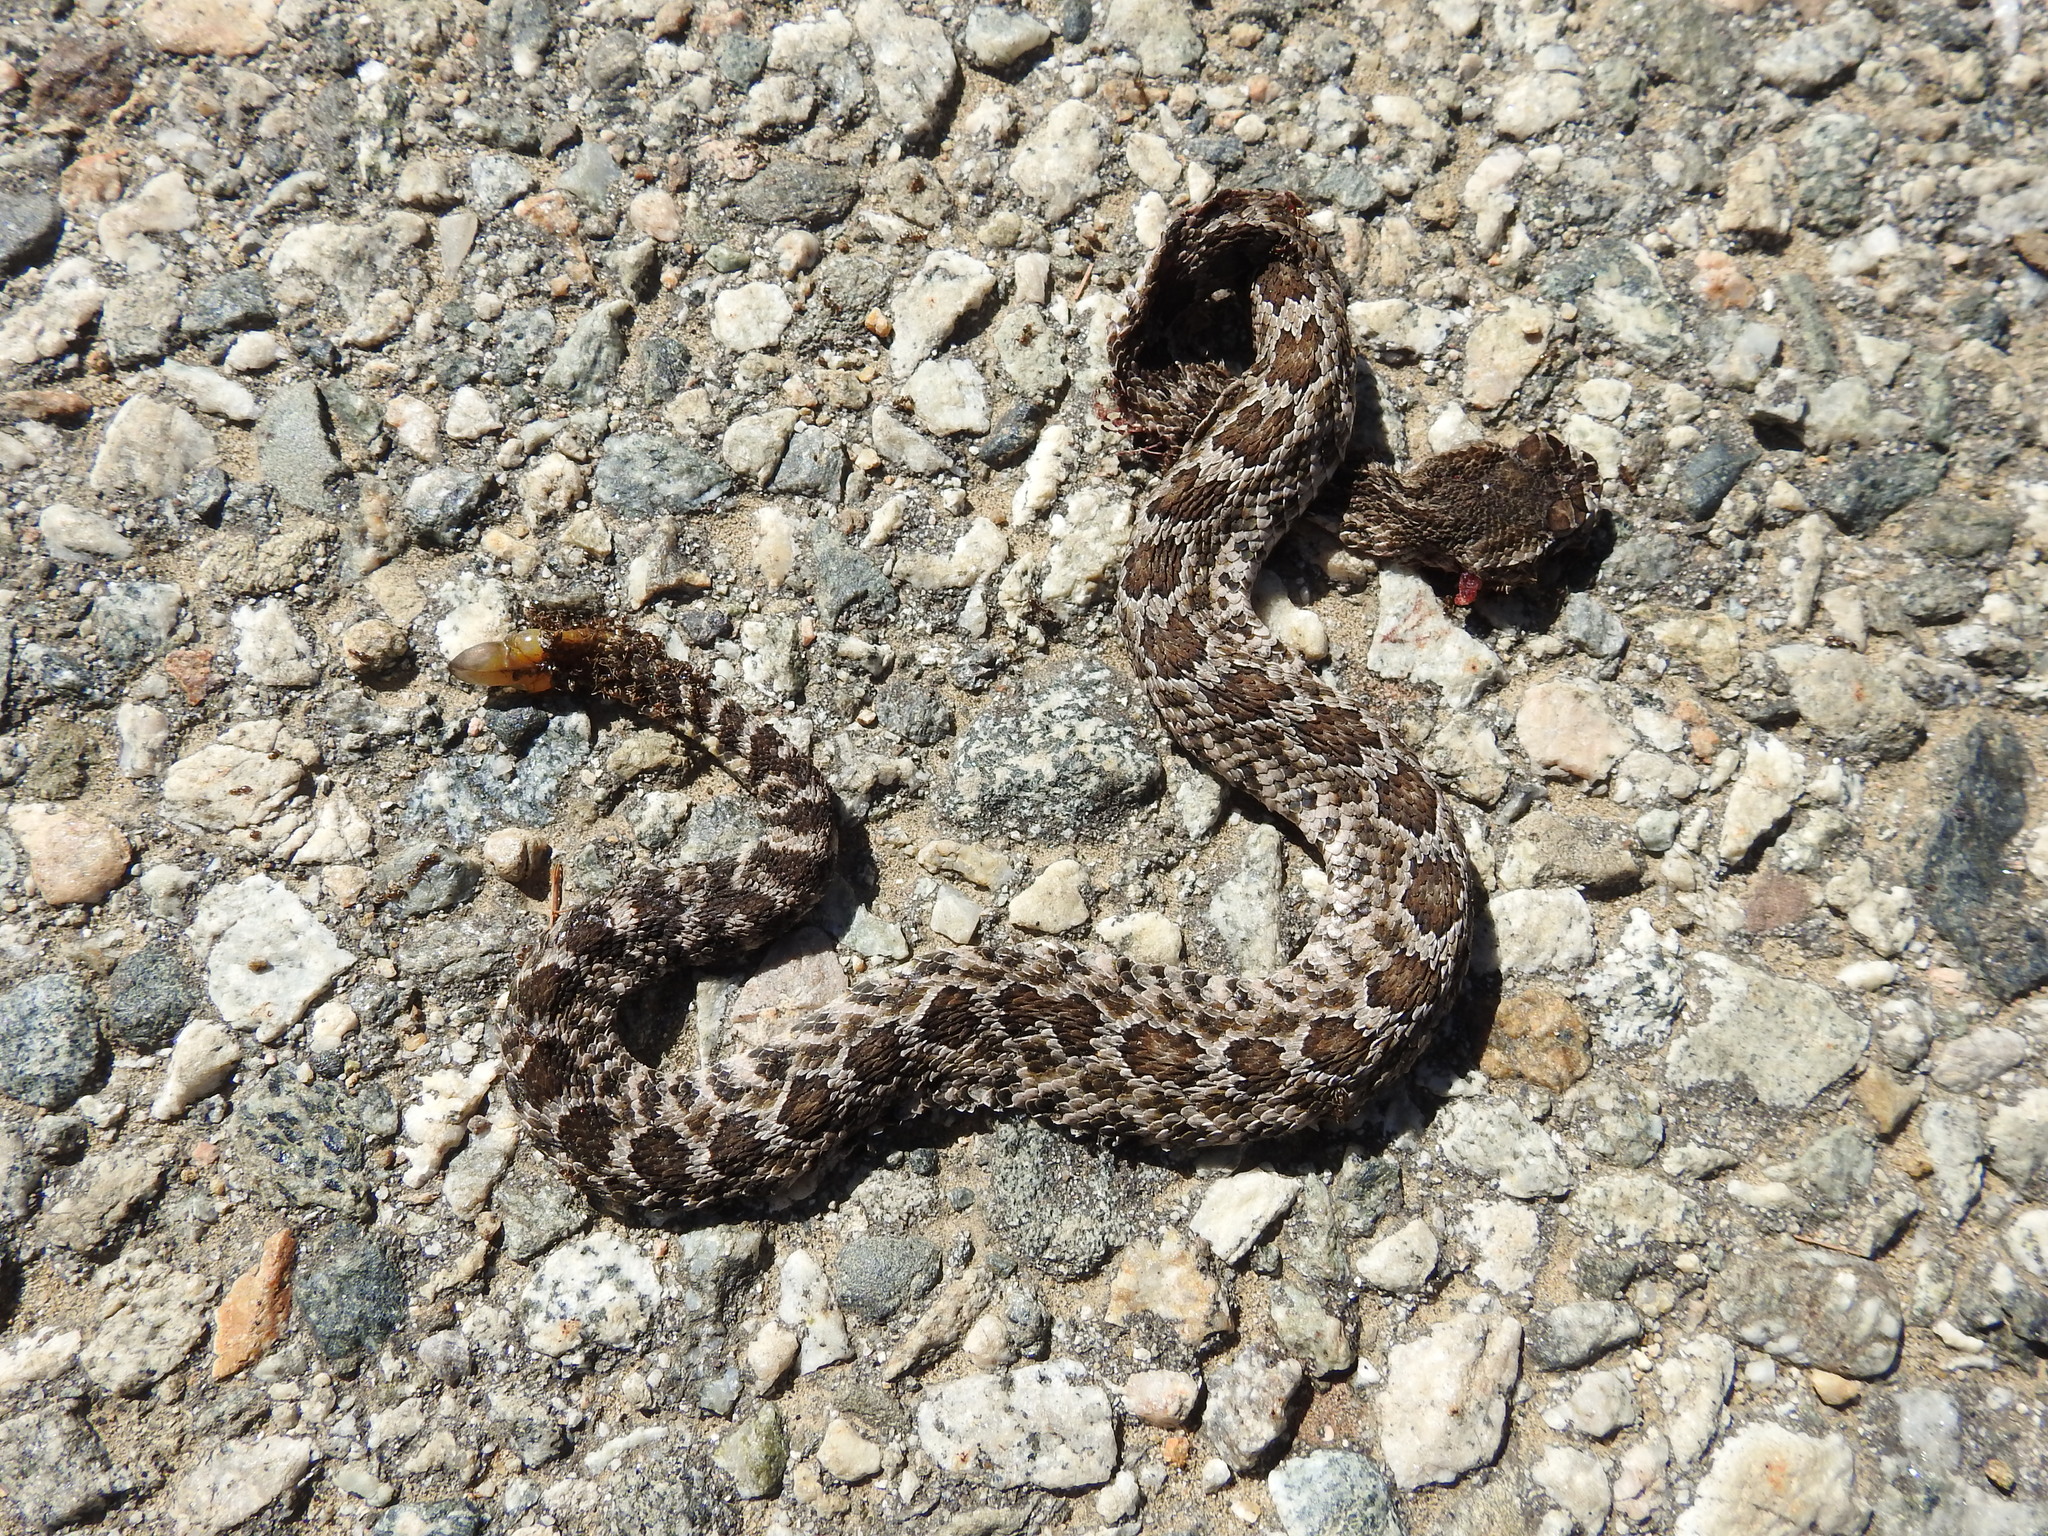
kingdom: Animalia
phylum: Chordata
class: Squamata
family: Viperidae
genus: Crotalus
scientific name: Crotalus oreganus
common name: Abyssus
